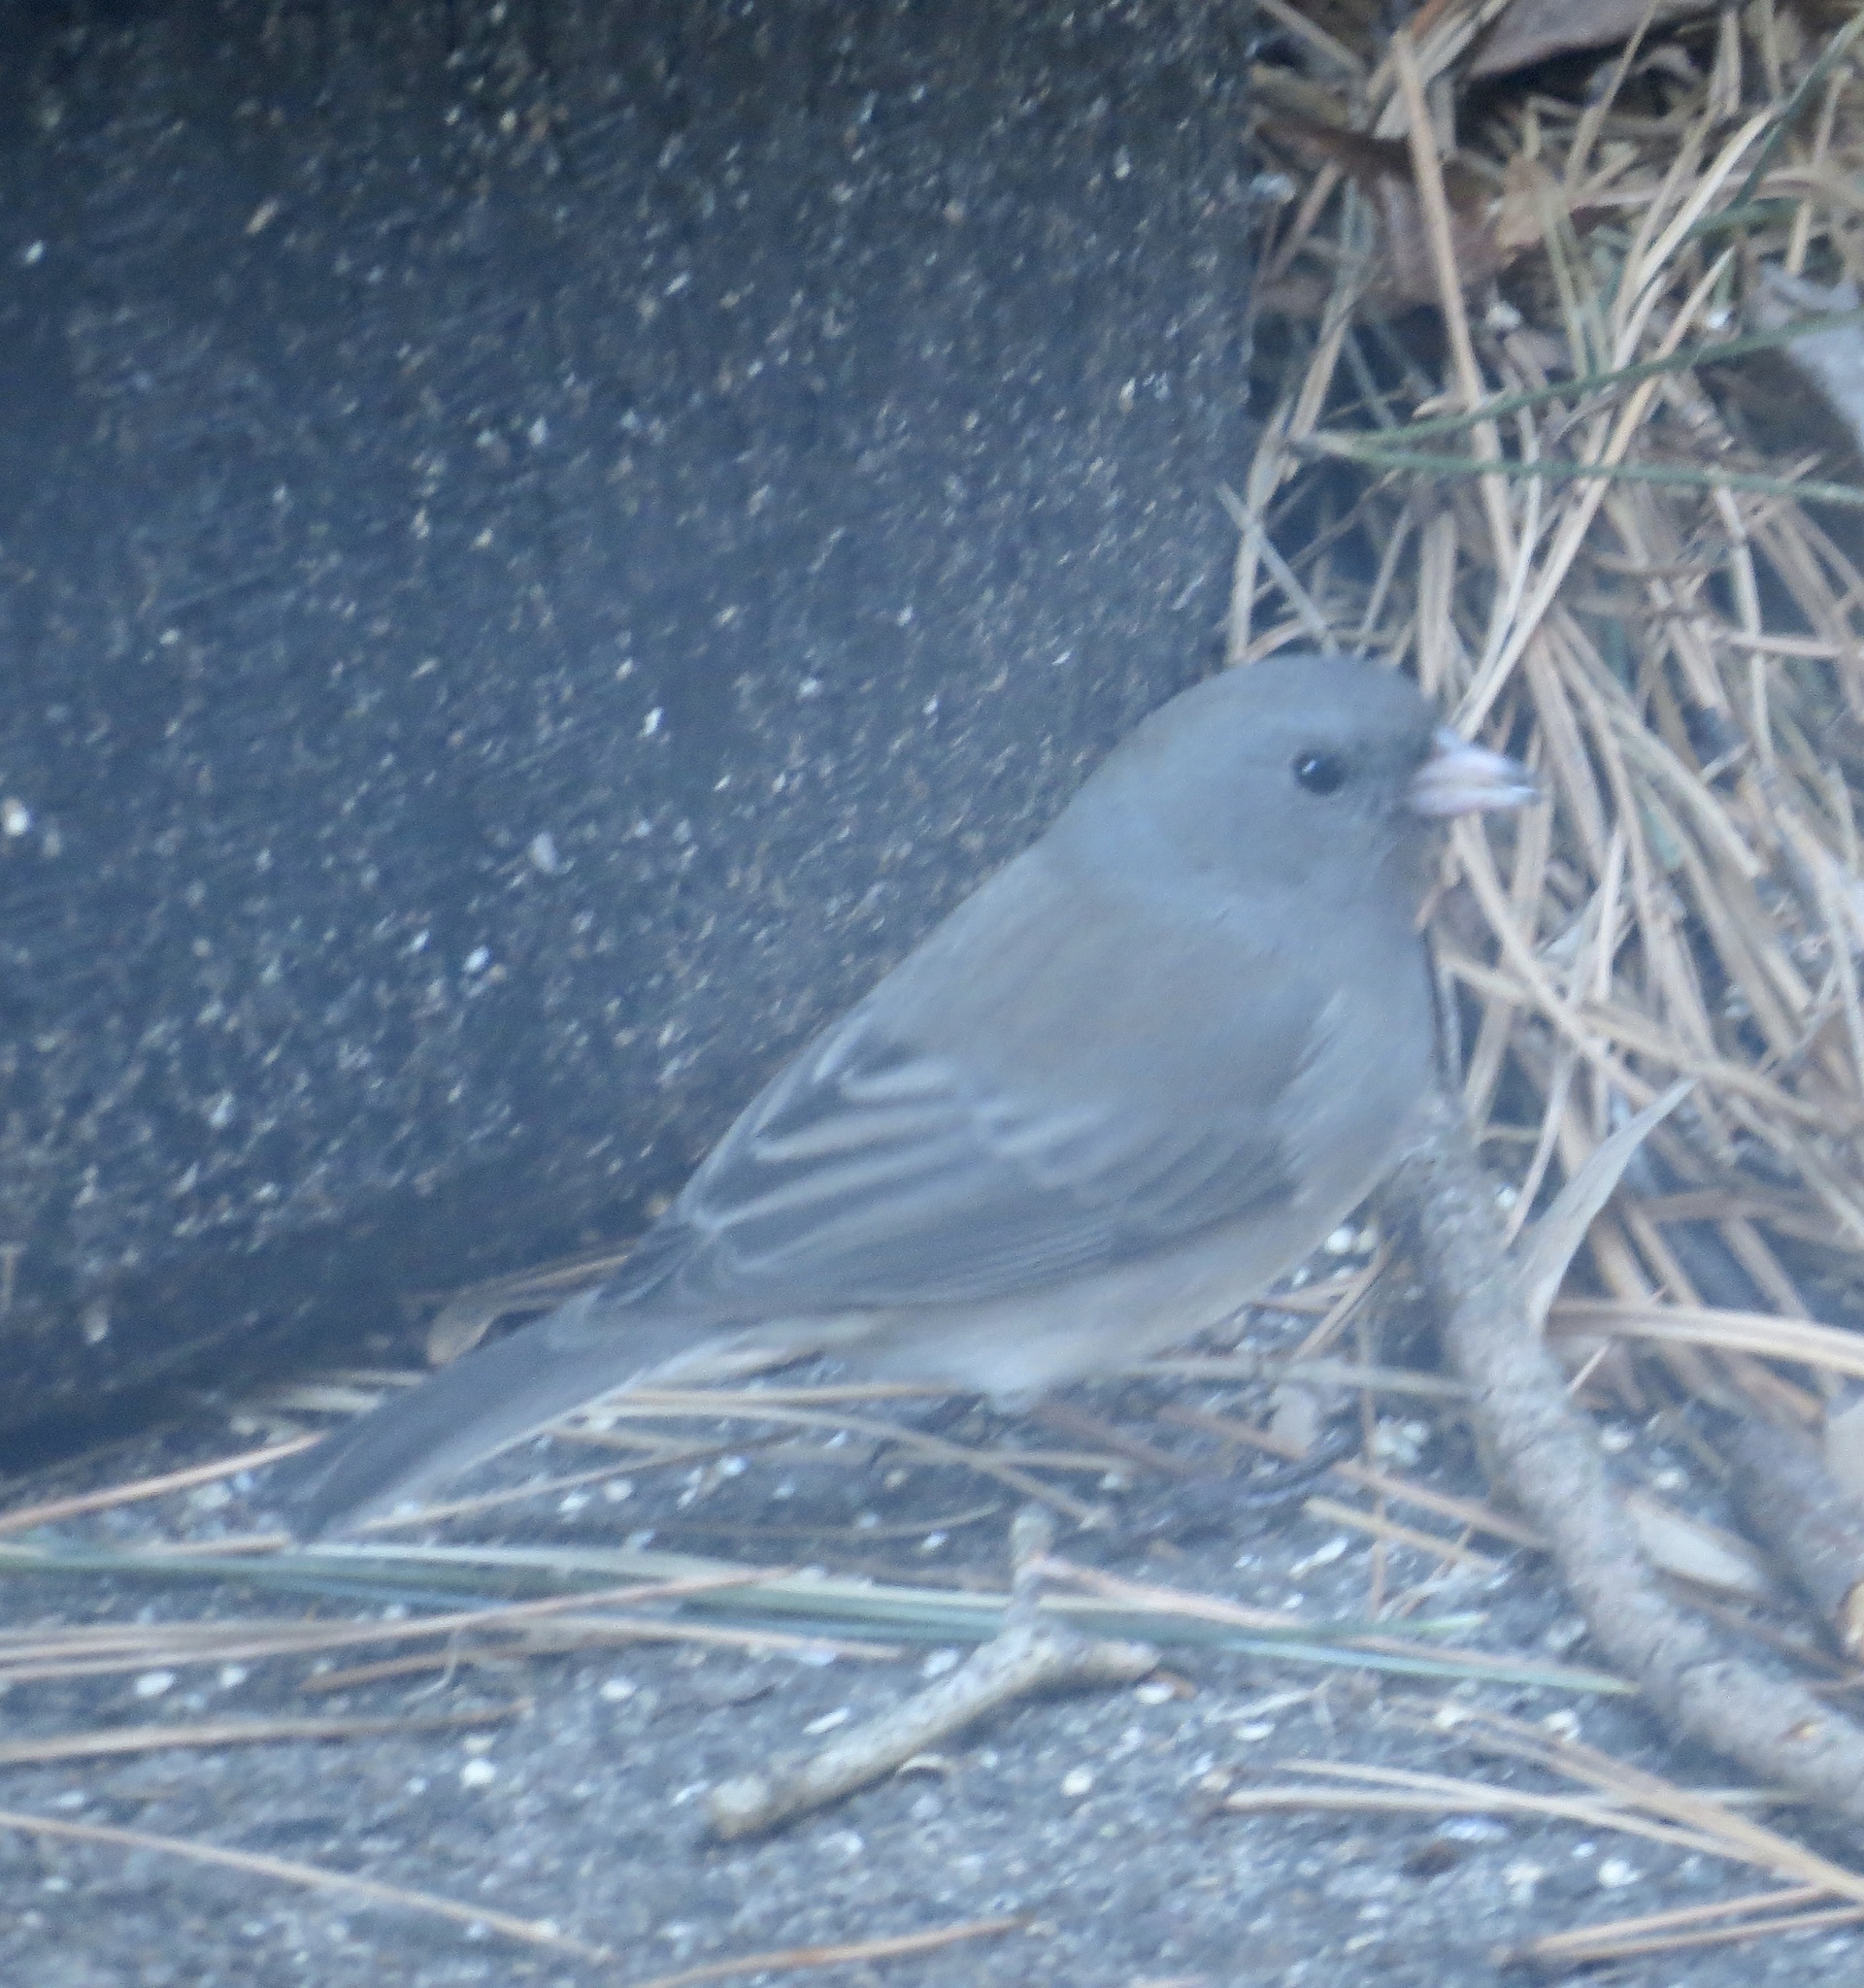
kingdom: Animalia
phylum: Chordata
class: Aves
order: Passeriformes
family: Passerellidae
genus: Junco
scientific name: Junco hyemalis
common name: Dark-eyed junco
